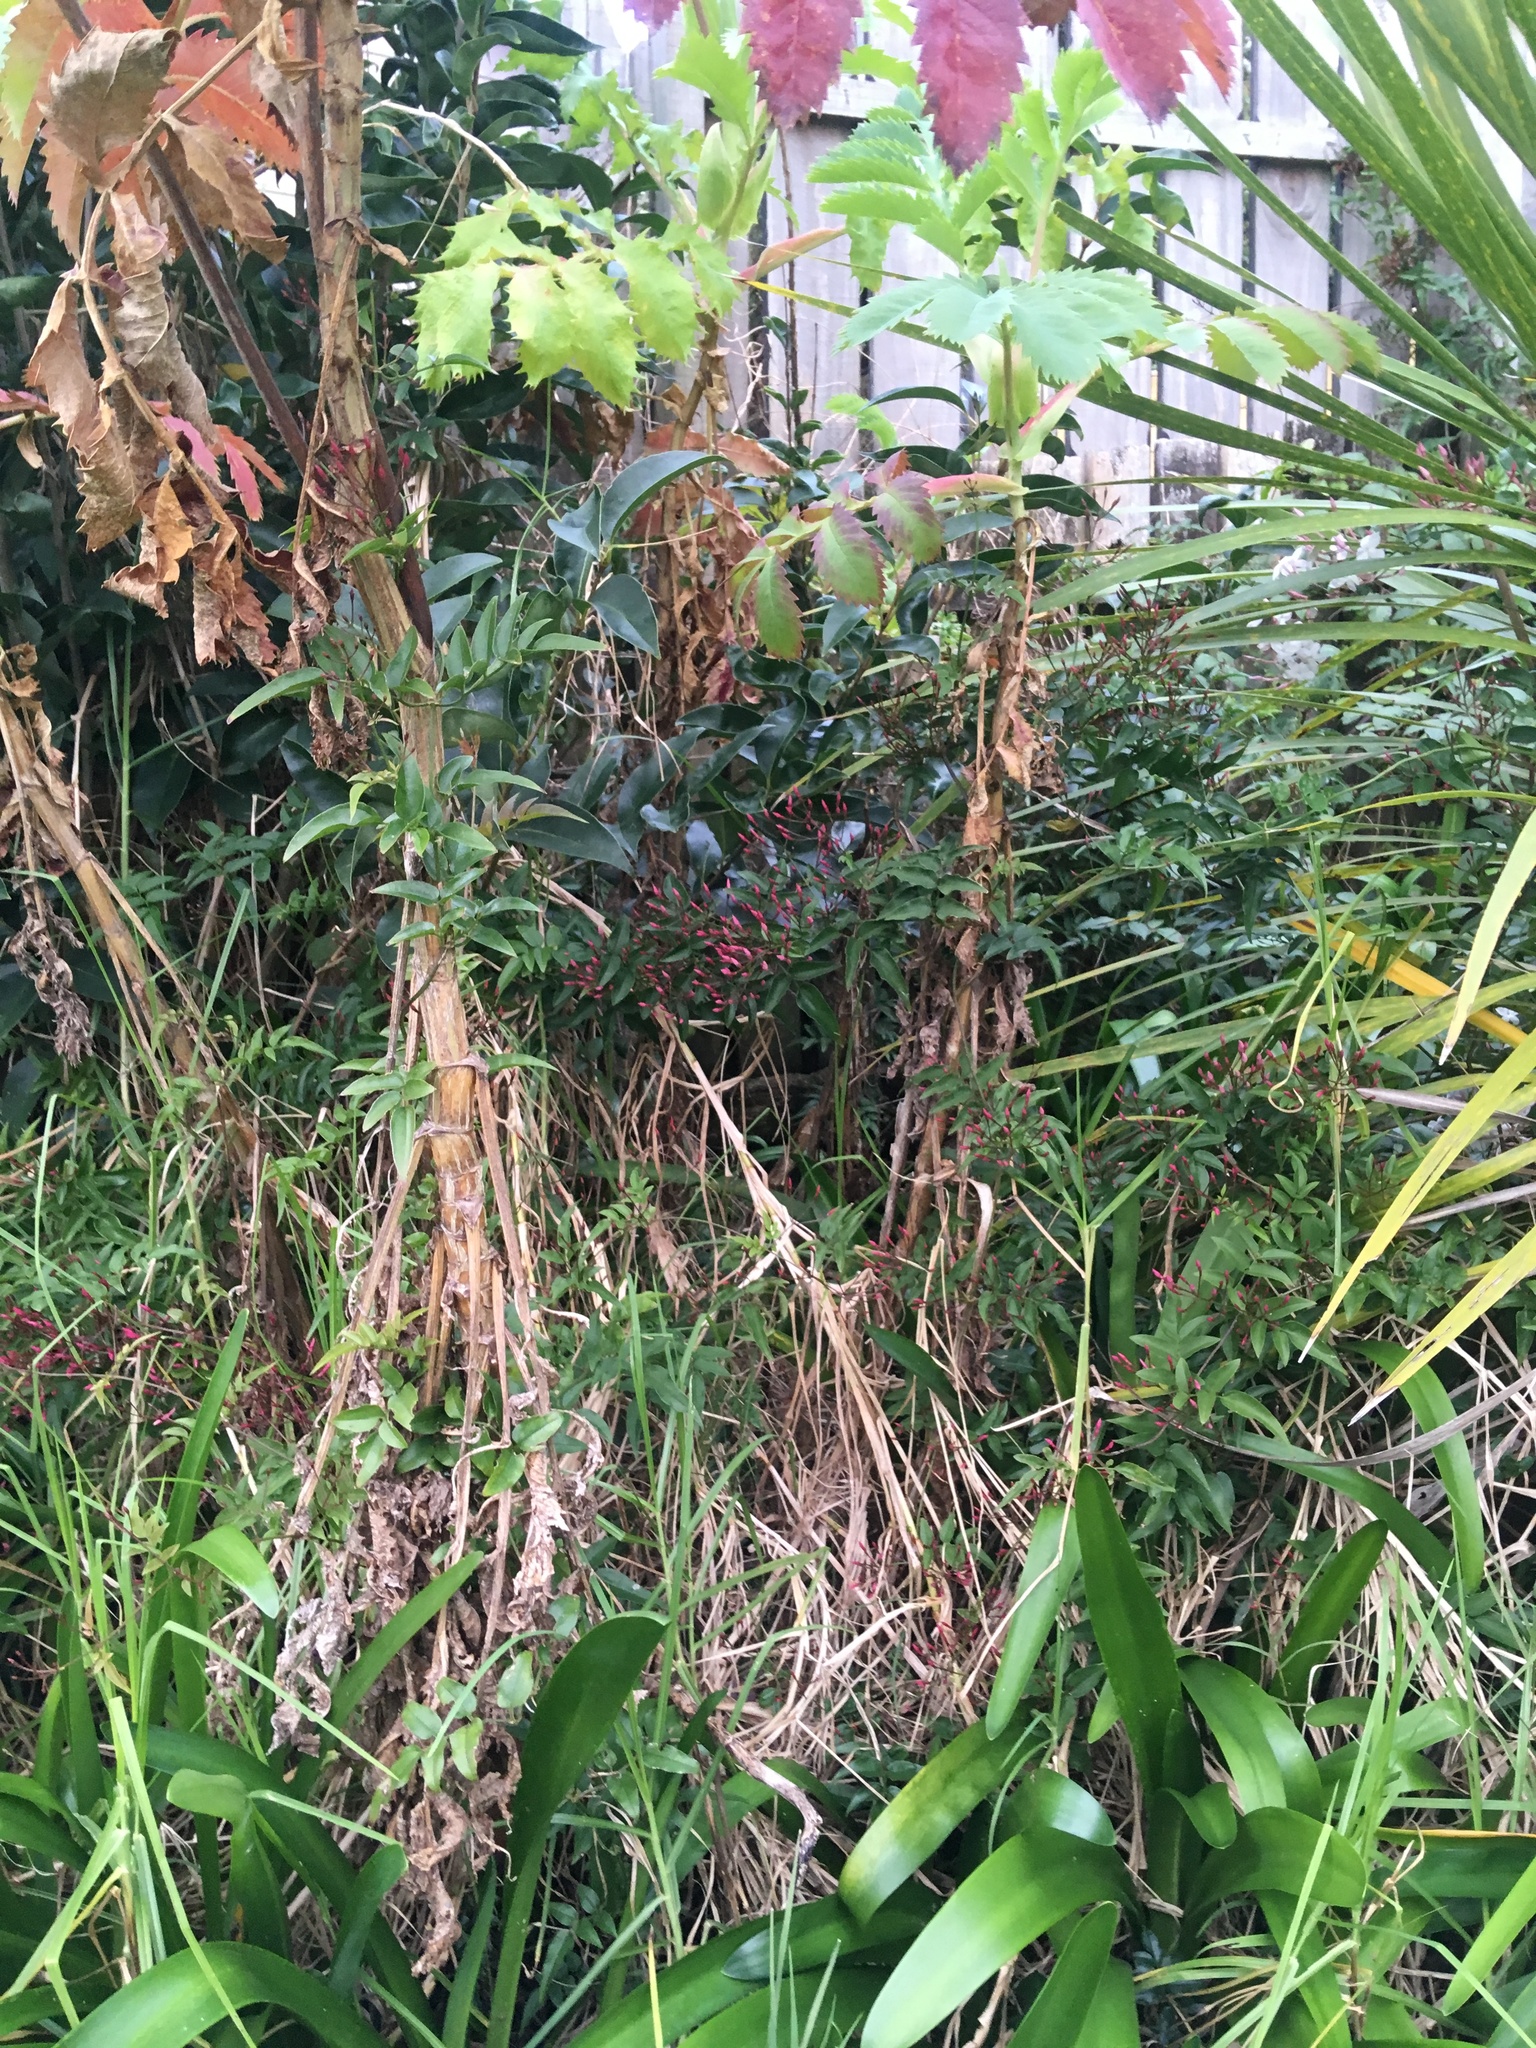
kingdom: Plantae
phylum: Tracheophyta
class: Magnoliopsida
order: Lamiales
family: Oleaceae
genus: Jasminum
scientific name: Jasminum polyanthum
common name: Pink jasmine
